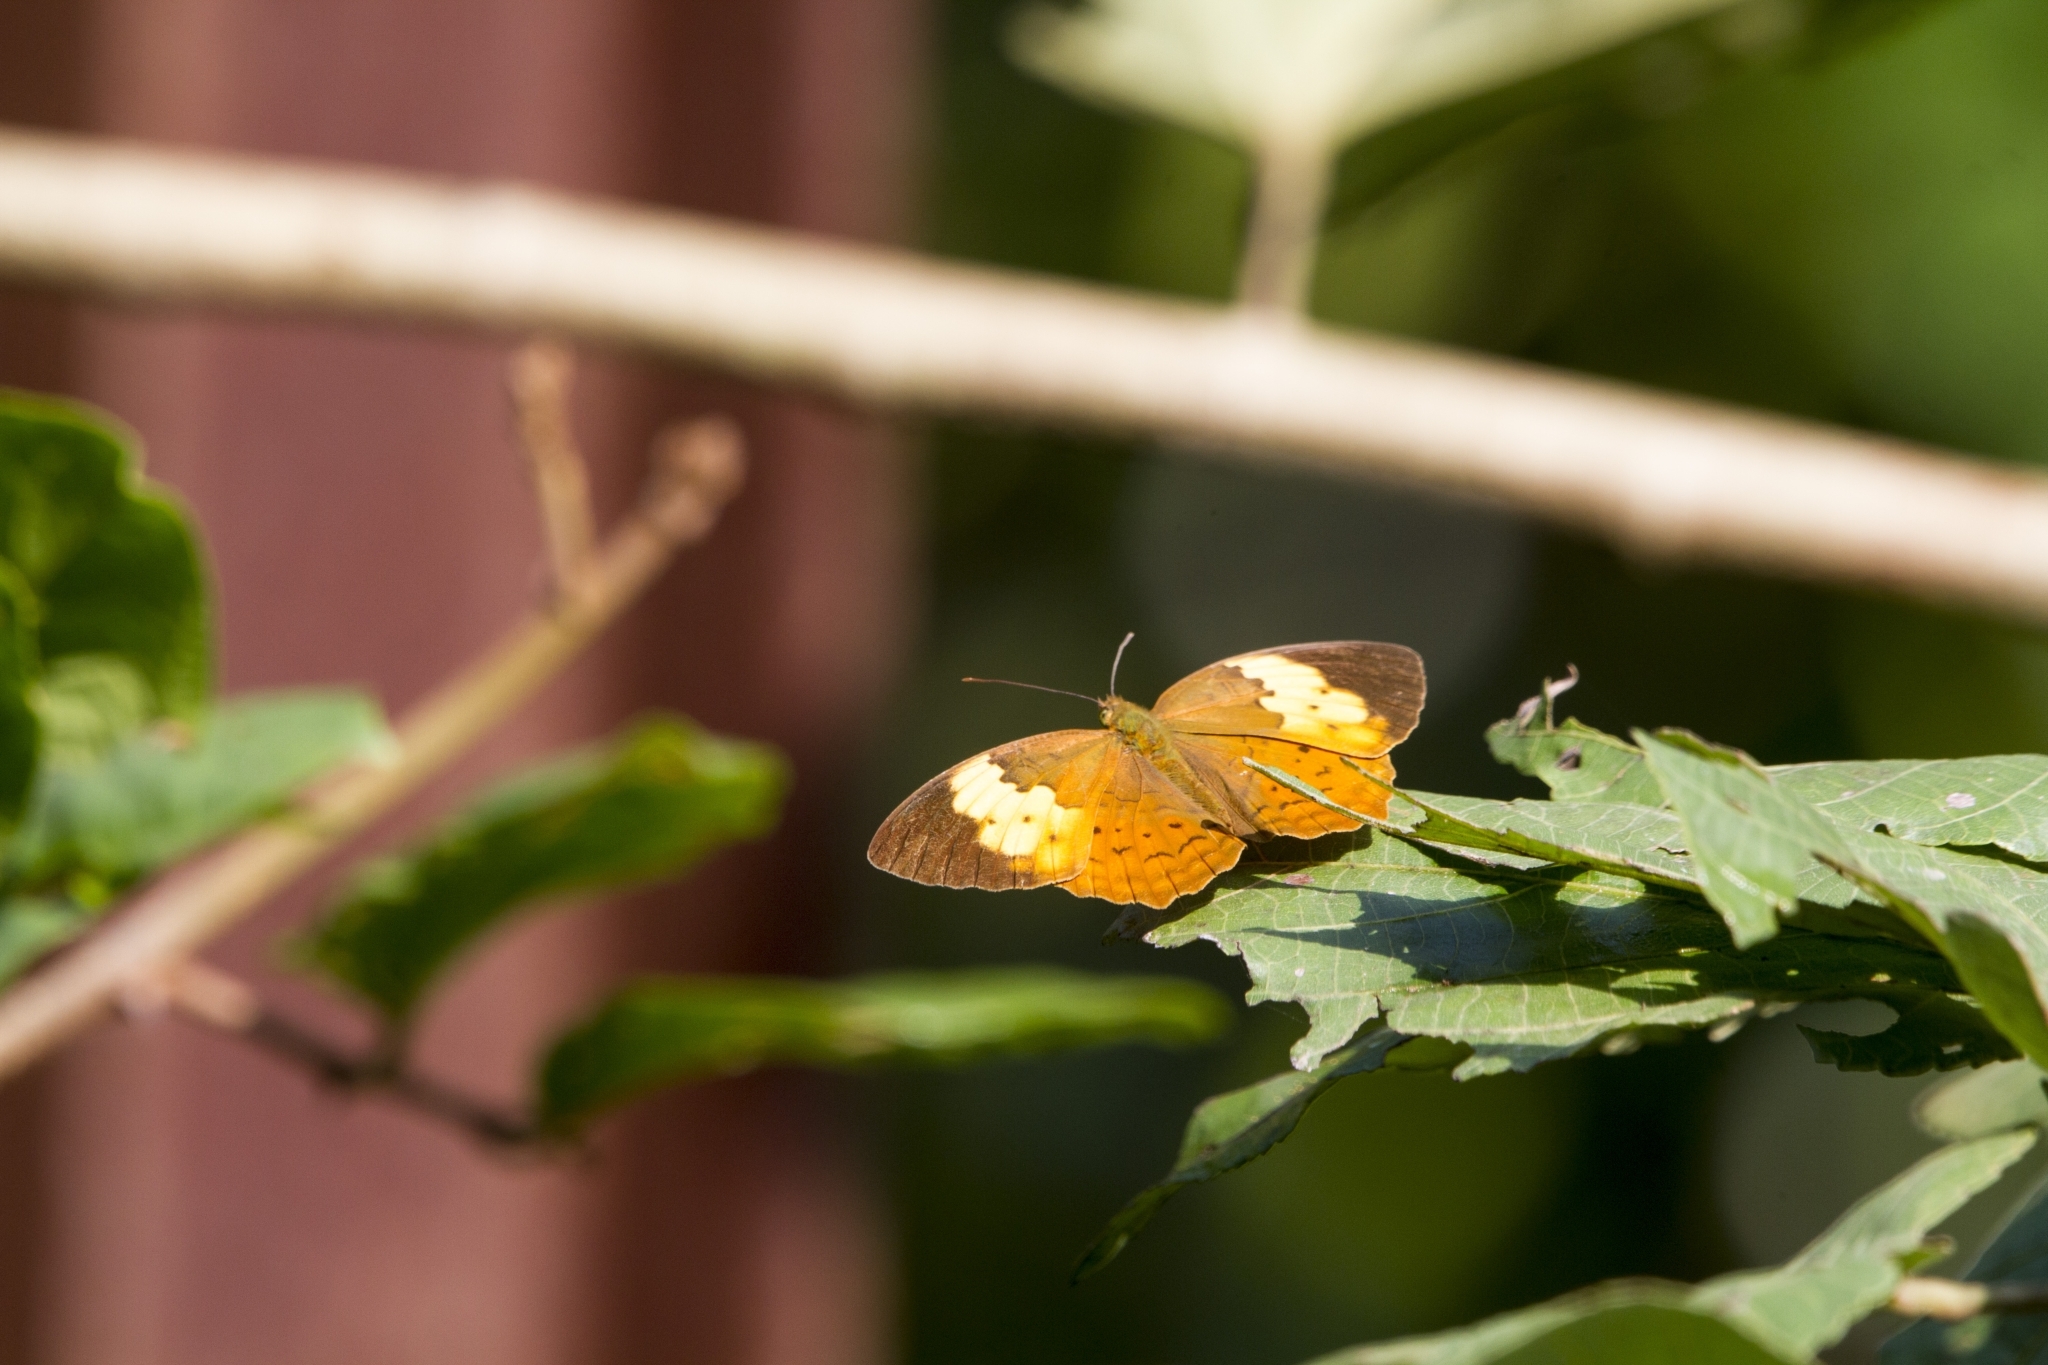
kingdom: Animalia
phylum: Arthropoda
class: Insecta
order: Lepidoptera
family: Nymphalidae
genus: Cupha
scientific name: Cupha erymanthis
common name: Rustic
